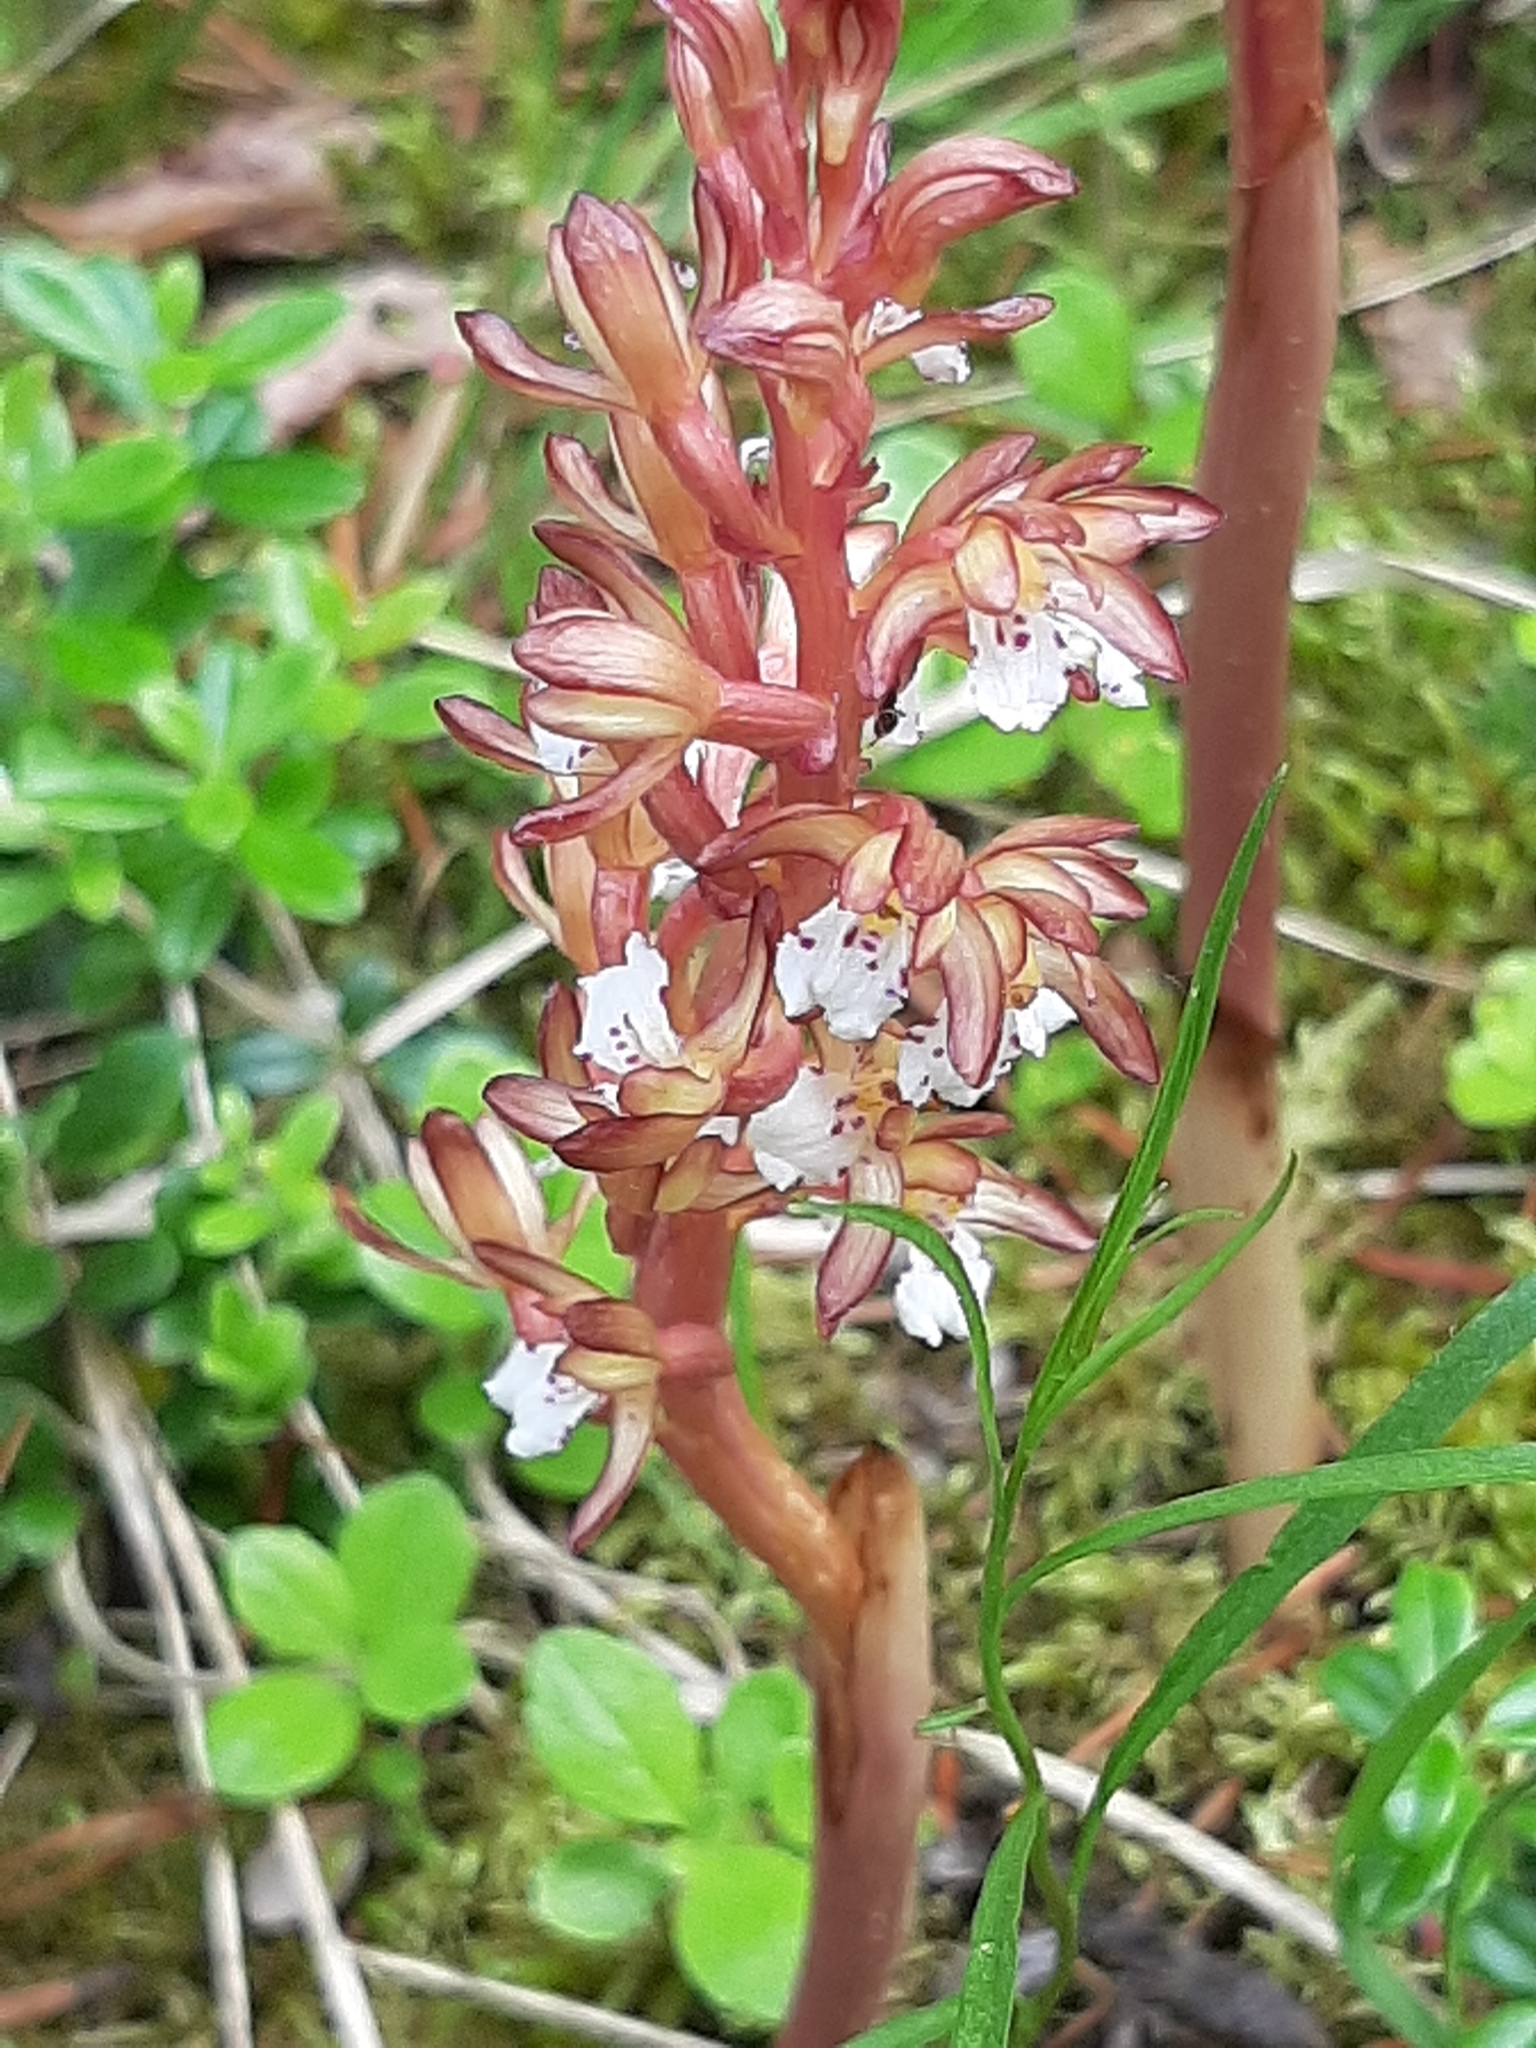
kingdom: Plantae
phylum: Tracheophyta
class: Liliopsida
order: Asparagales
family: Orchidaceae
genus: Corallorhiza
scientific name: Corallorhiza maculata
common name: Spotted coralroot
